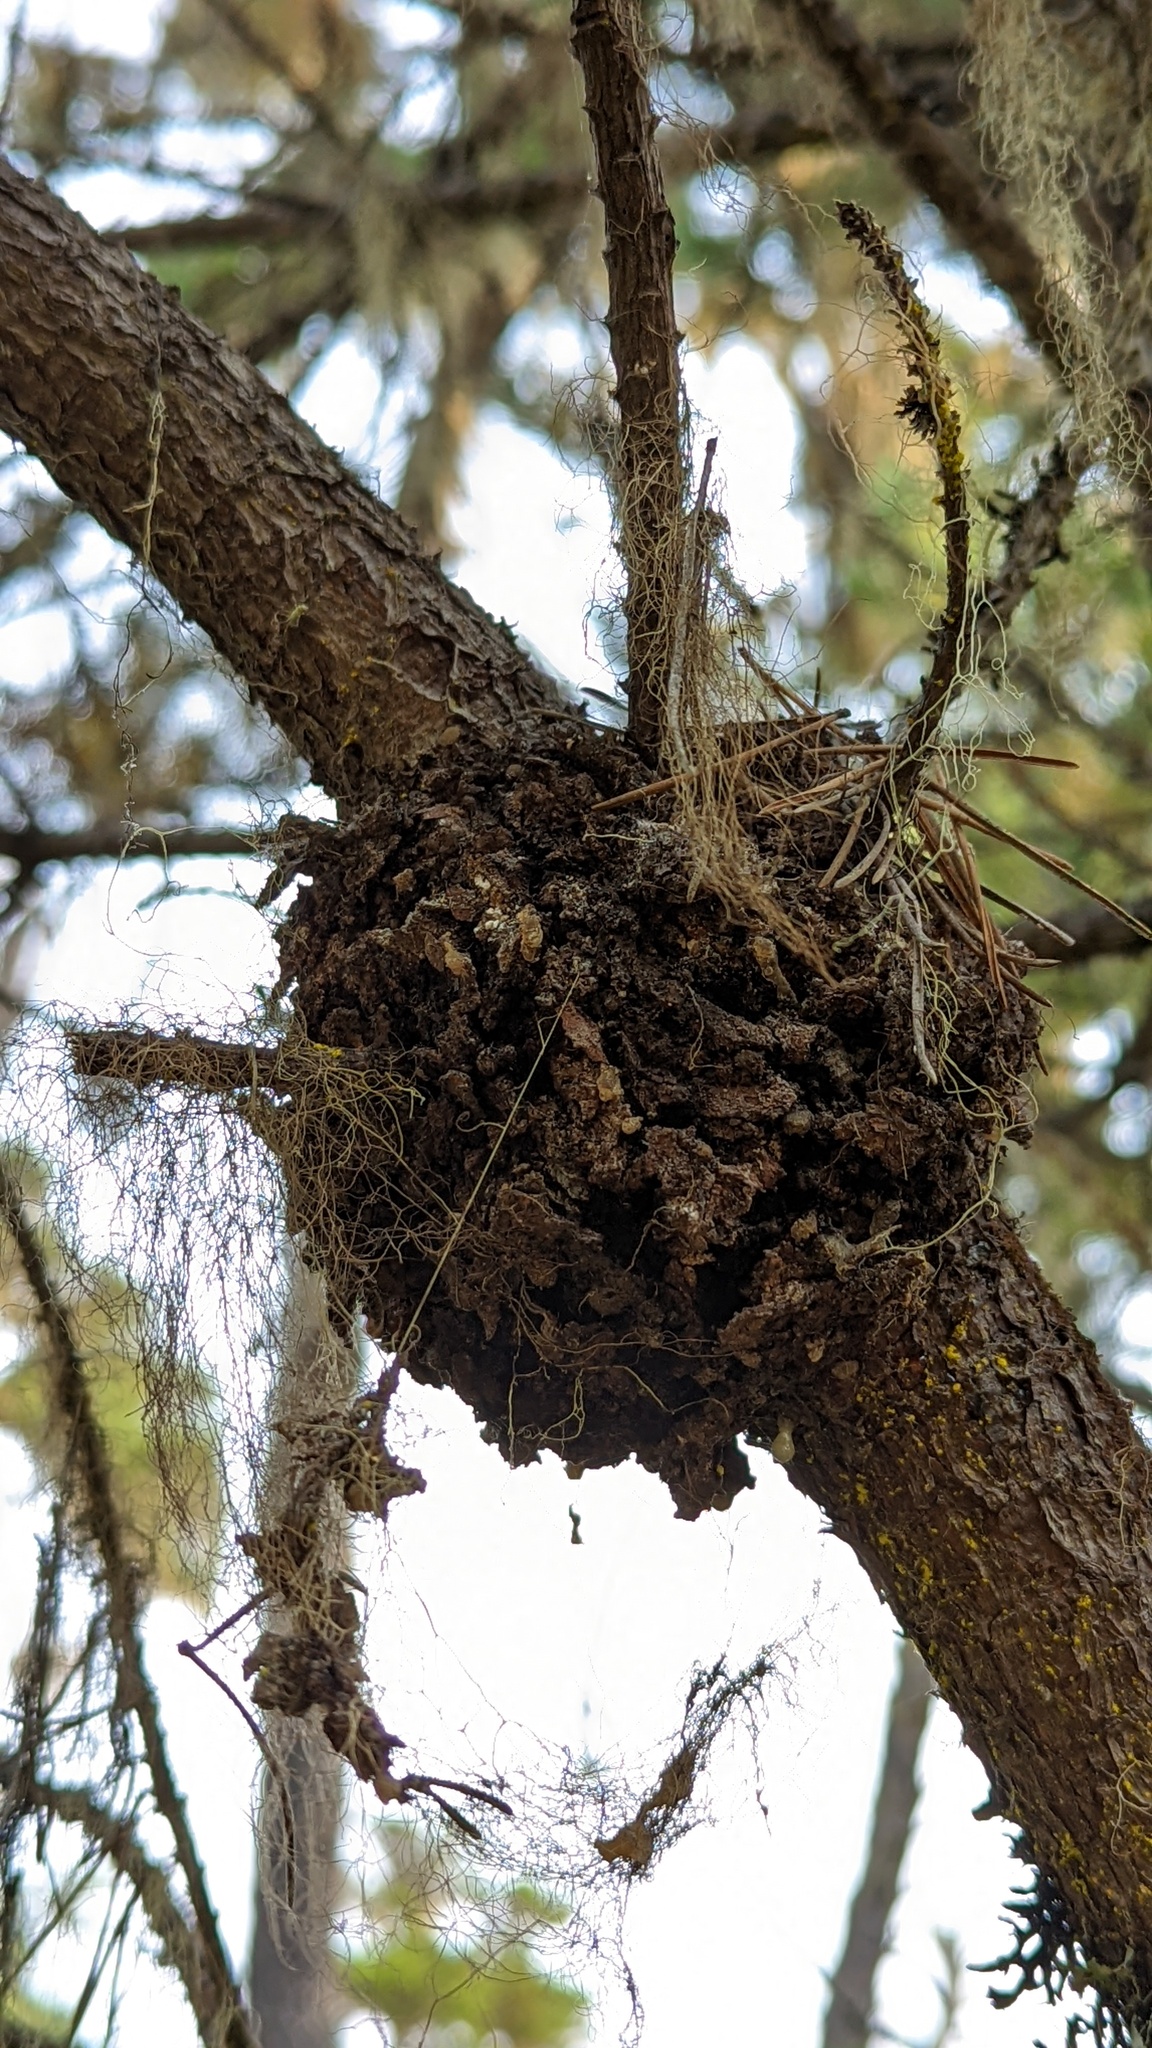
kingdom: Fungi
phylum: Basidiomycota
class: Pucciniomycetes
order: Pucciniales
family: Cronartiaceae
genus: Cronartium
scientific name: Cronartium harknessii
